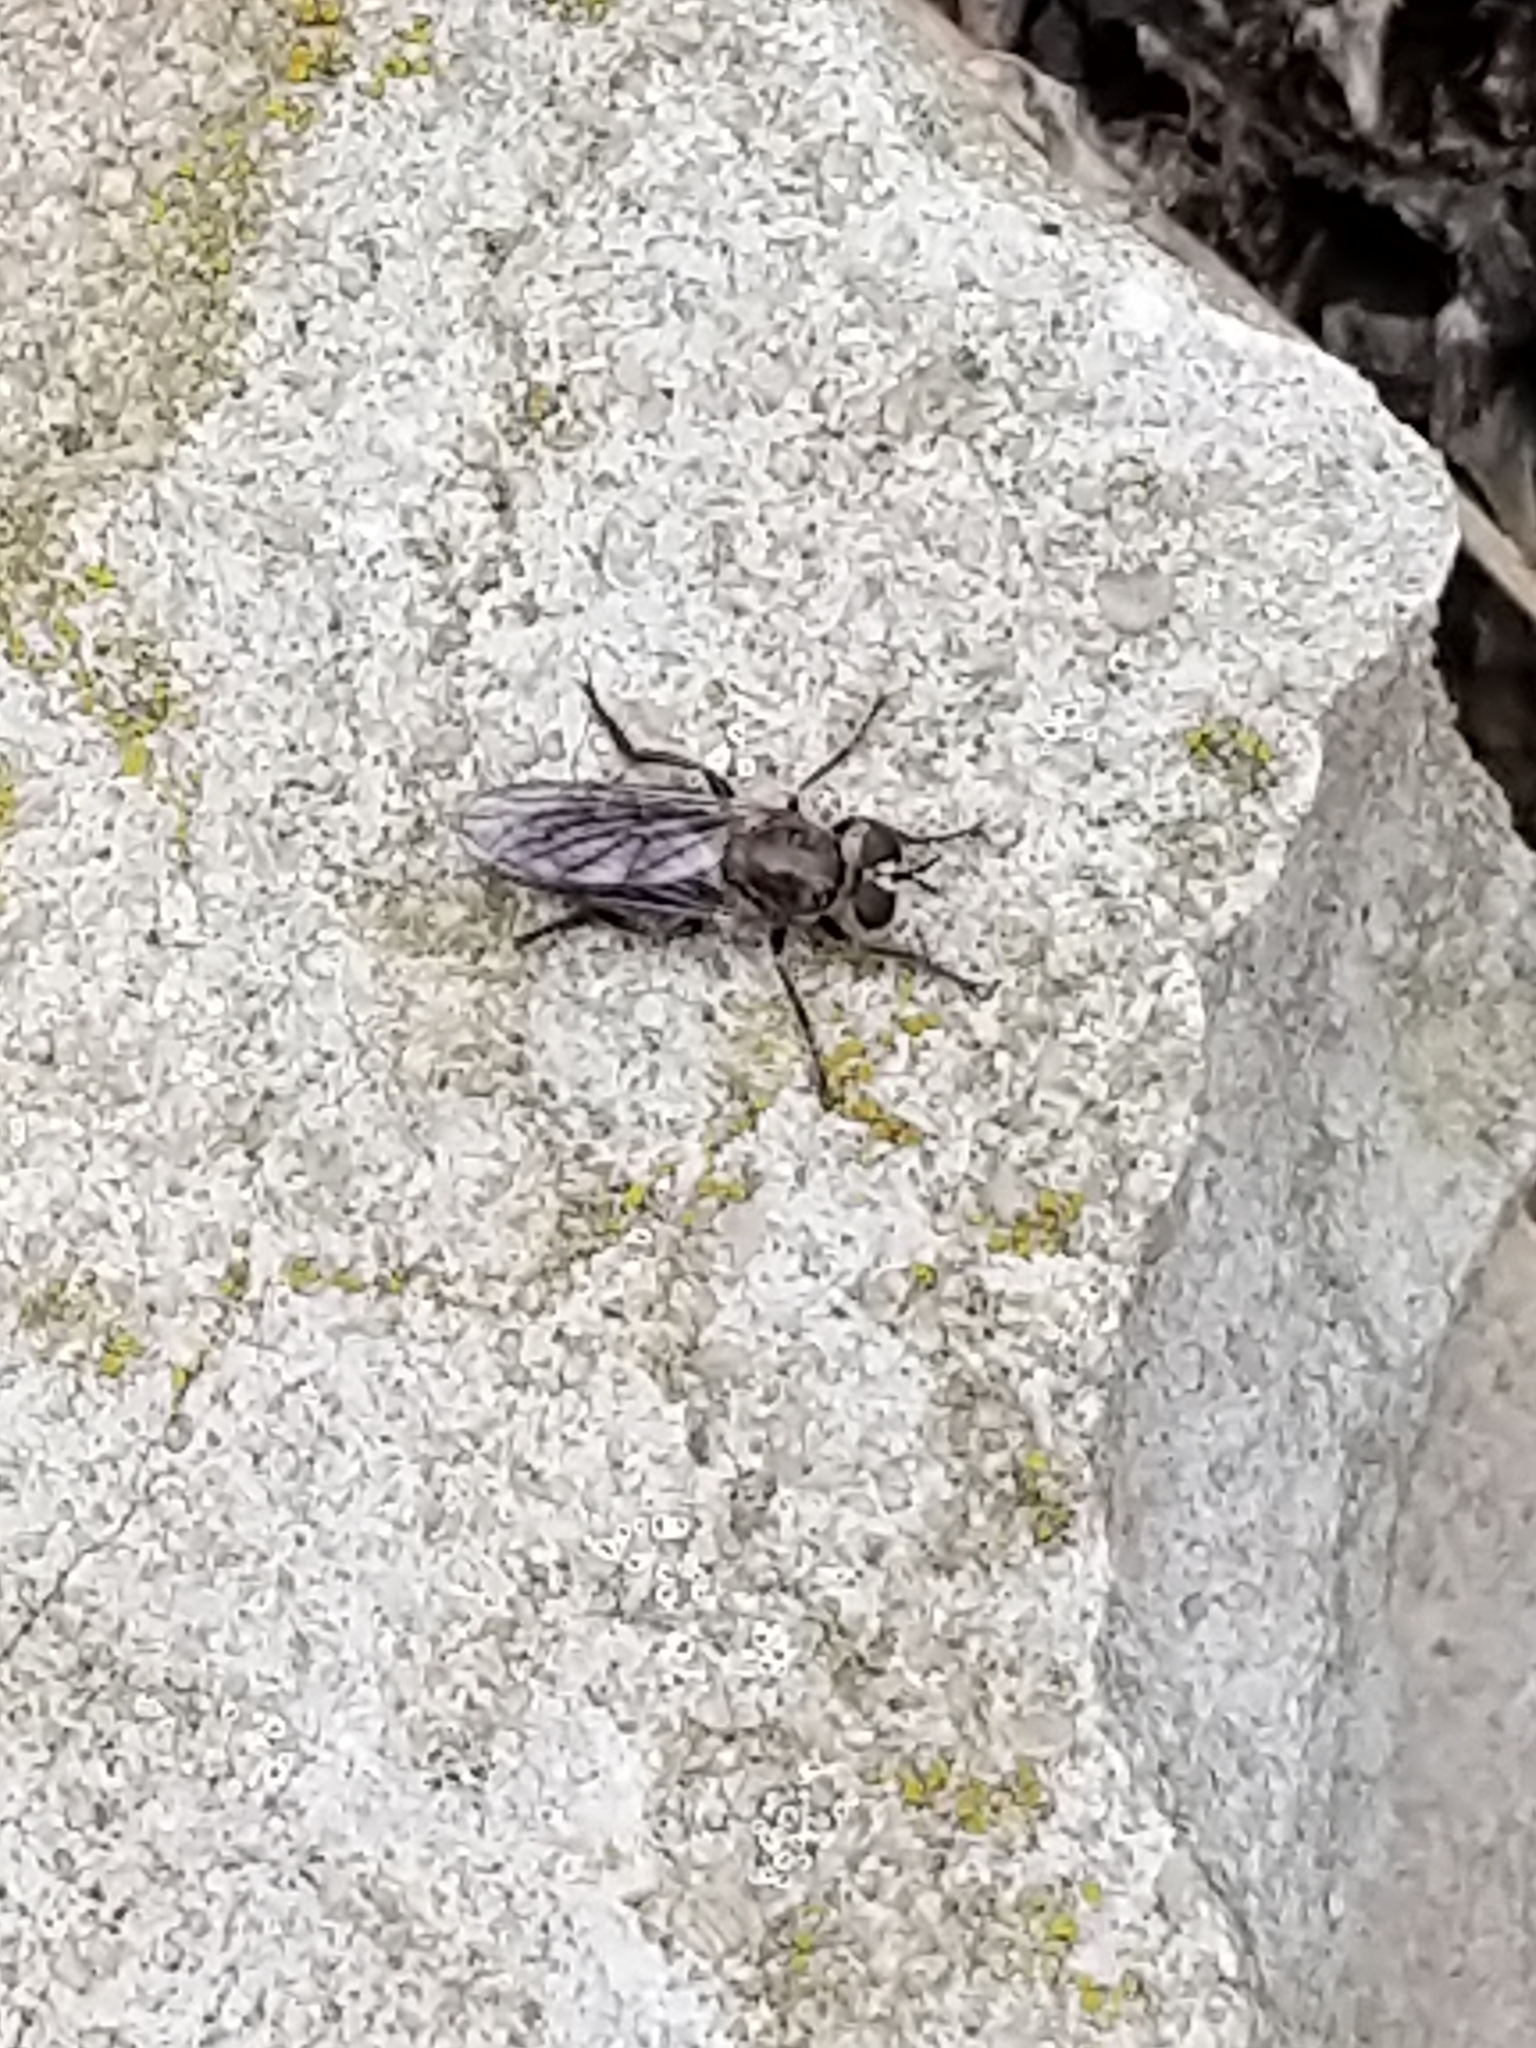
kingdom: Animalia
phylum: Arthropoda
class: Insecta
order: Diptera
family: Asilidae
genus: Atomosia
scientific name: Atomosia puella
